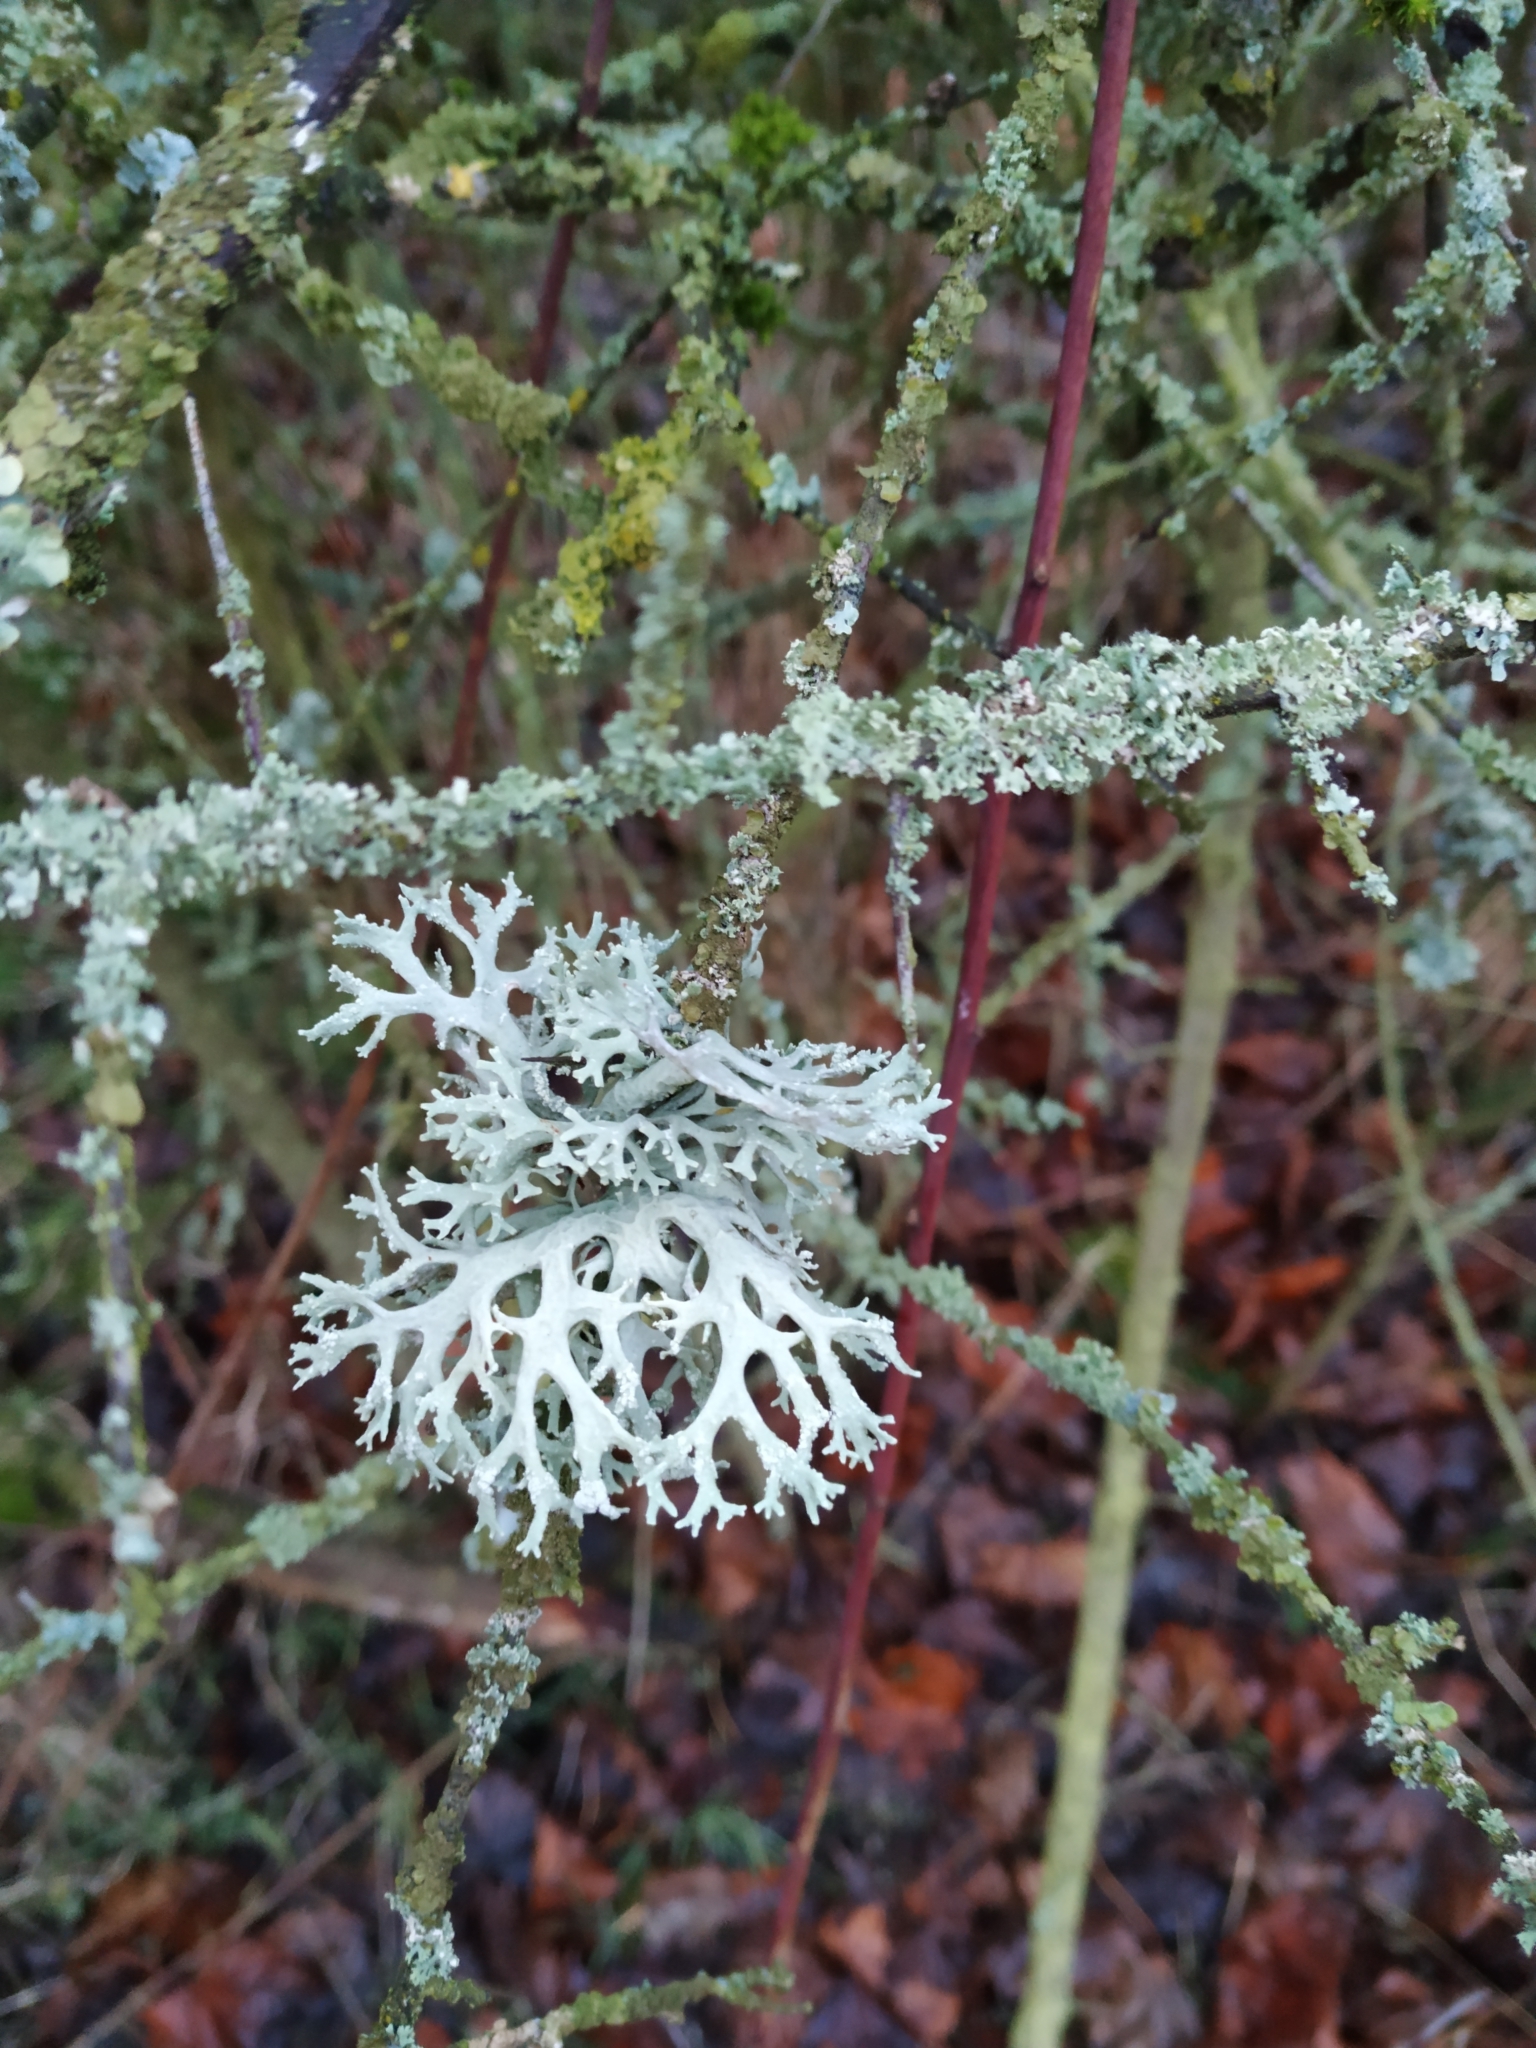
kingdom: Fungi
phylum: Ascomycota
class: Lecanoromycetes
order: Lecanorales
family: Parmeliaceae
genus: Evernia
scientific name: Evernia prunastri
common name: Oak moss
